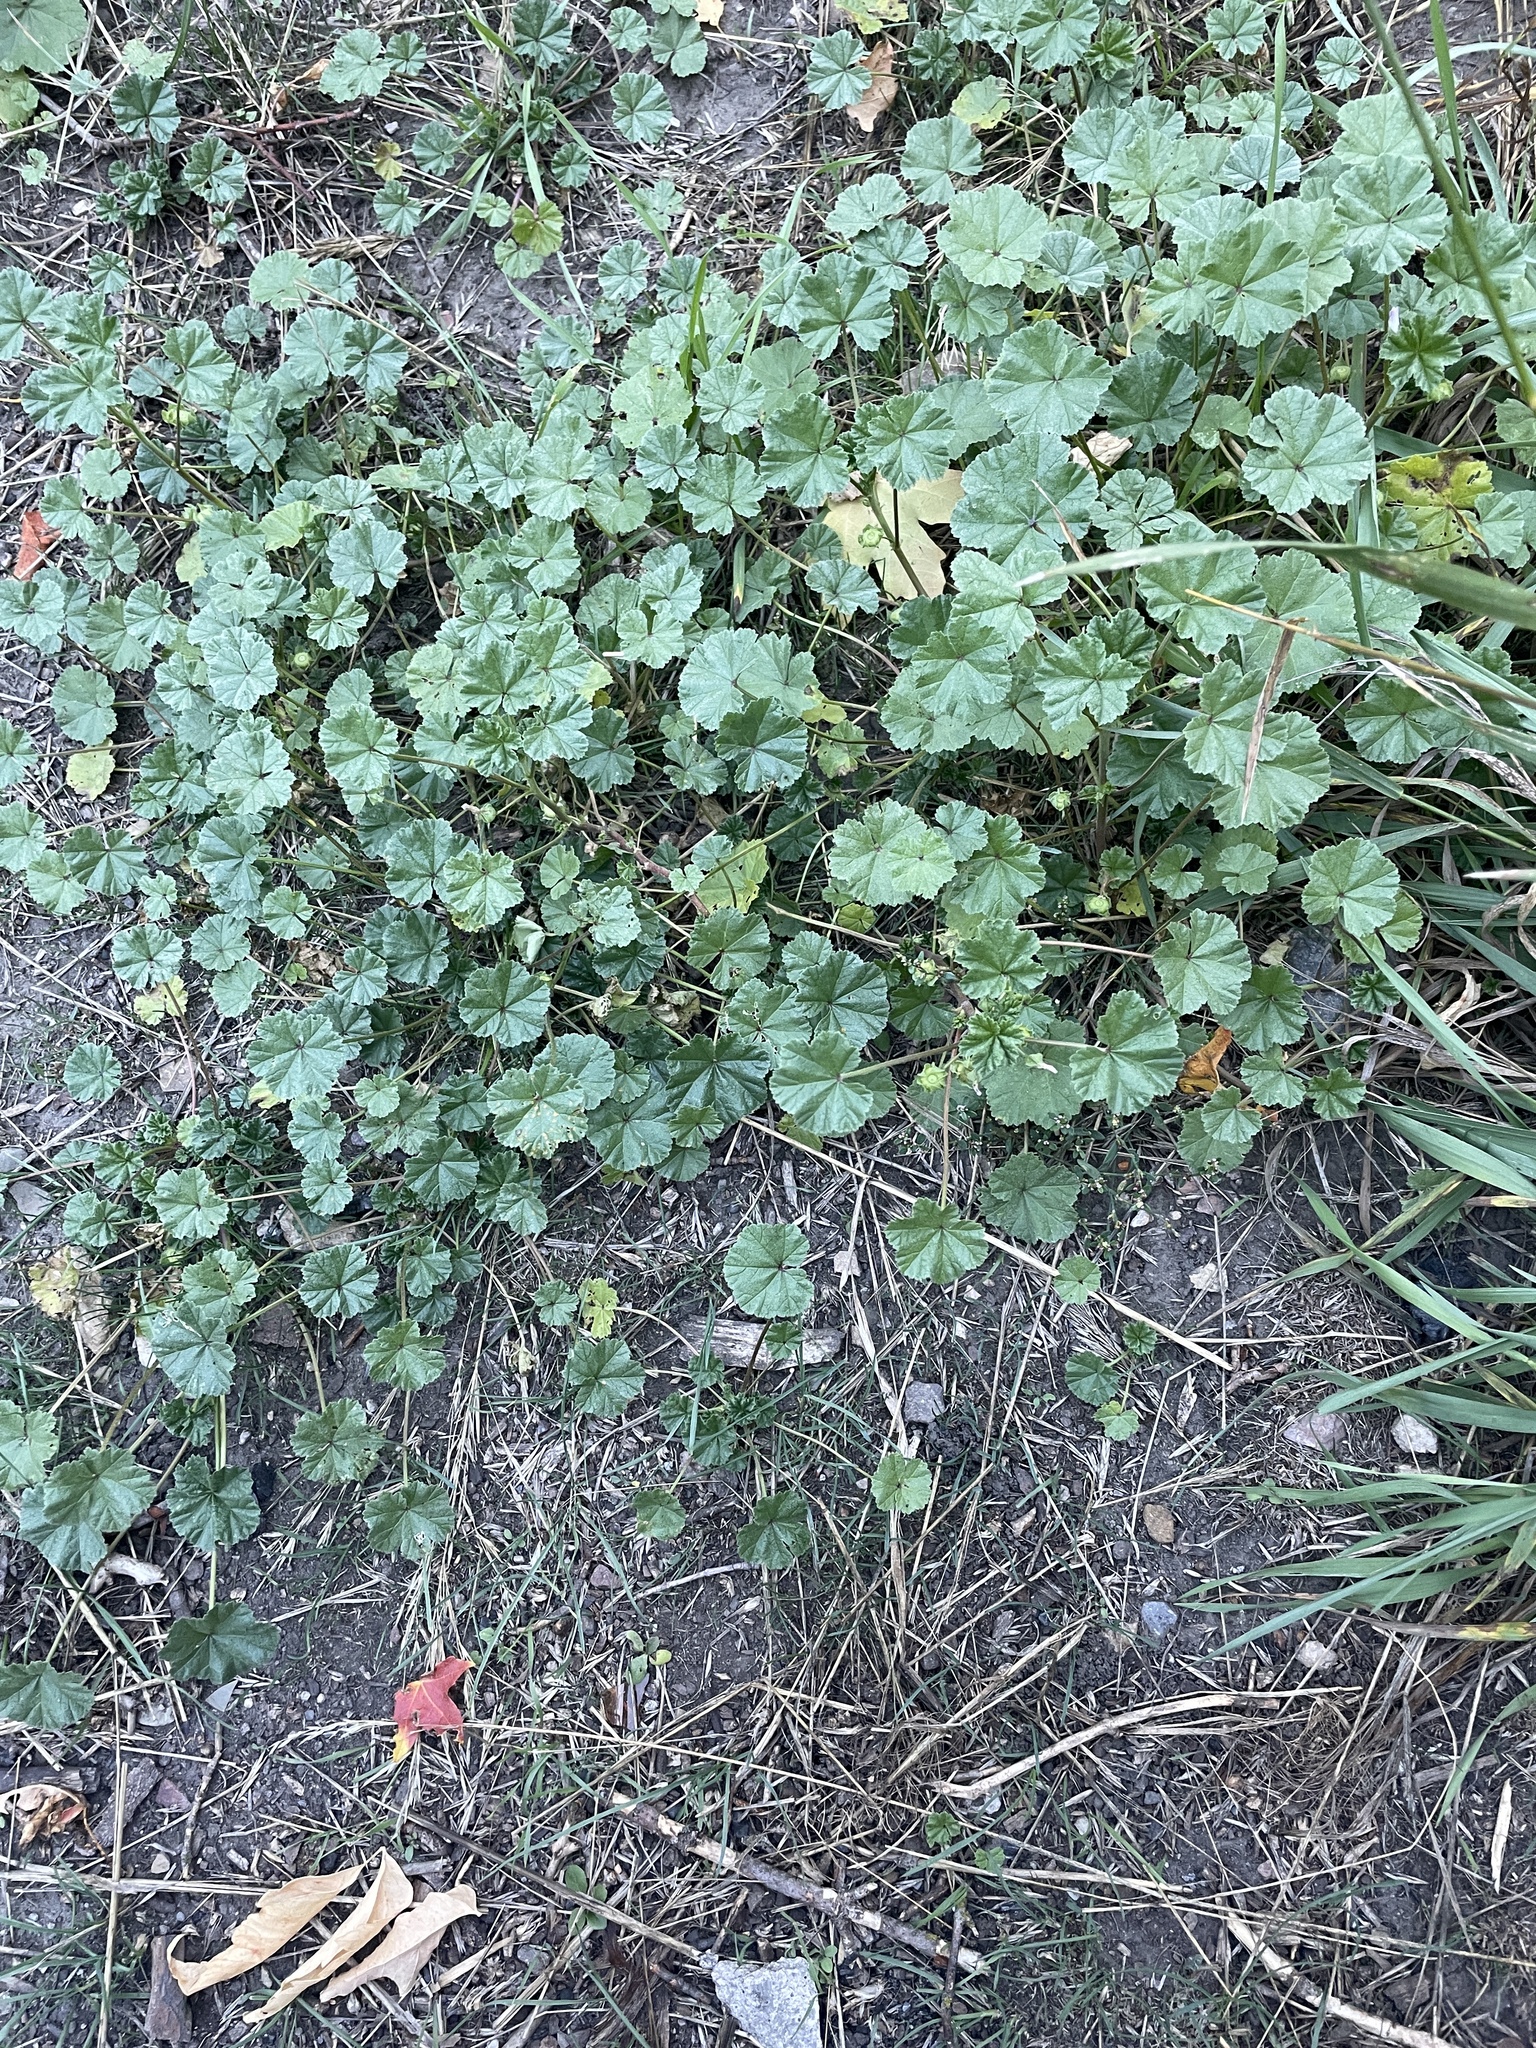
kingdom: Plantae
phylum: Tracheophyta
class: Magnoliopsida
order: Malvales
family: Malvaceae
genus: Malva
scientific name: Malva neglecta
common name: Common mallow
